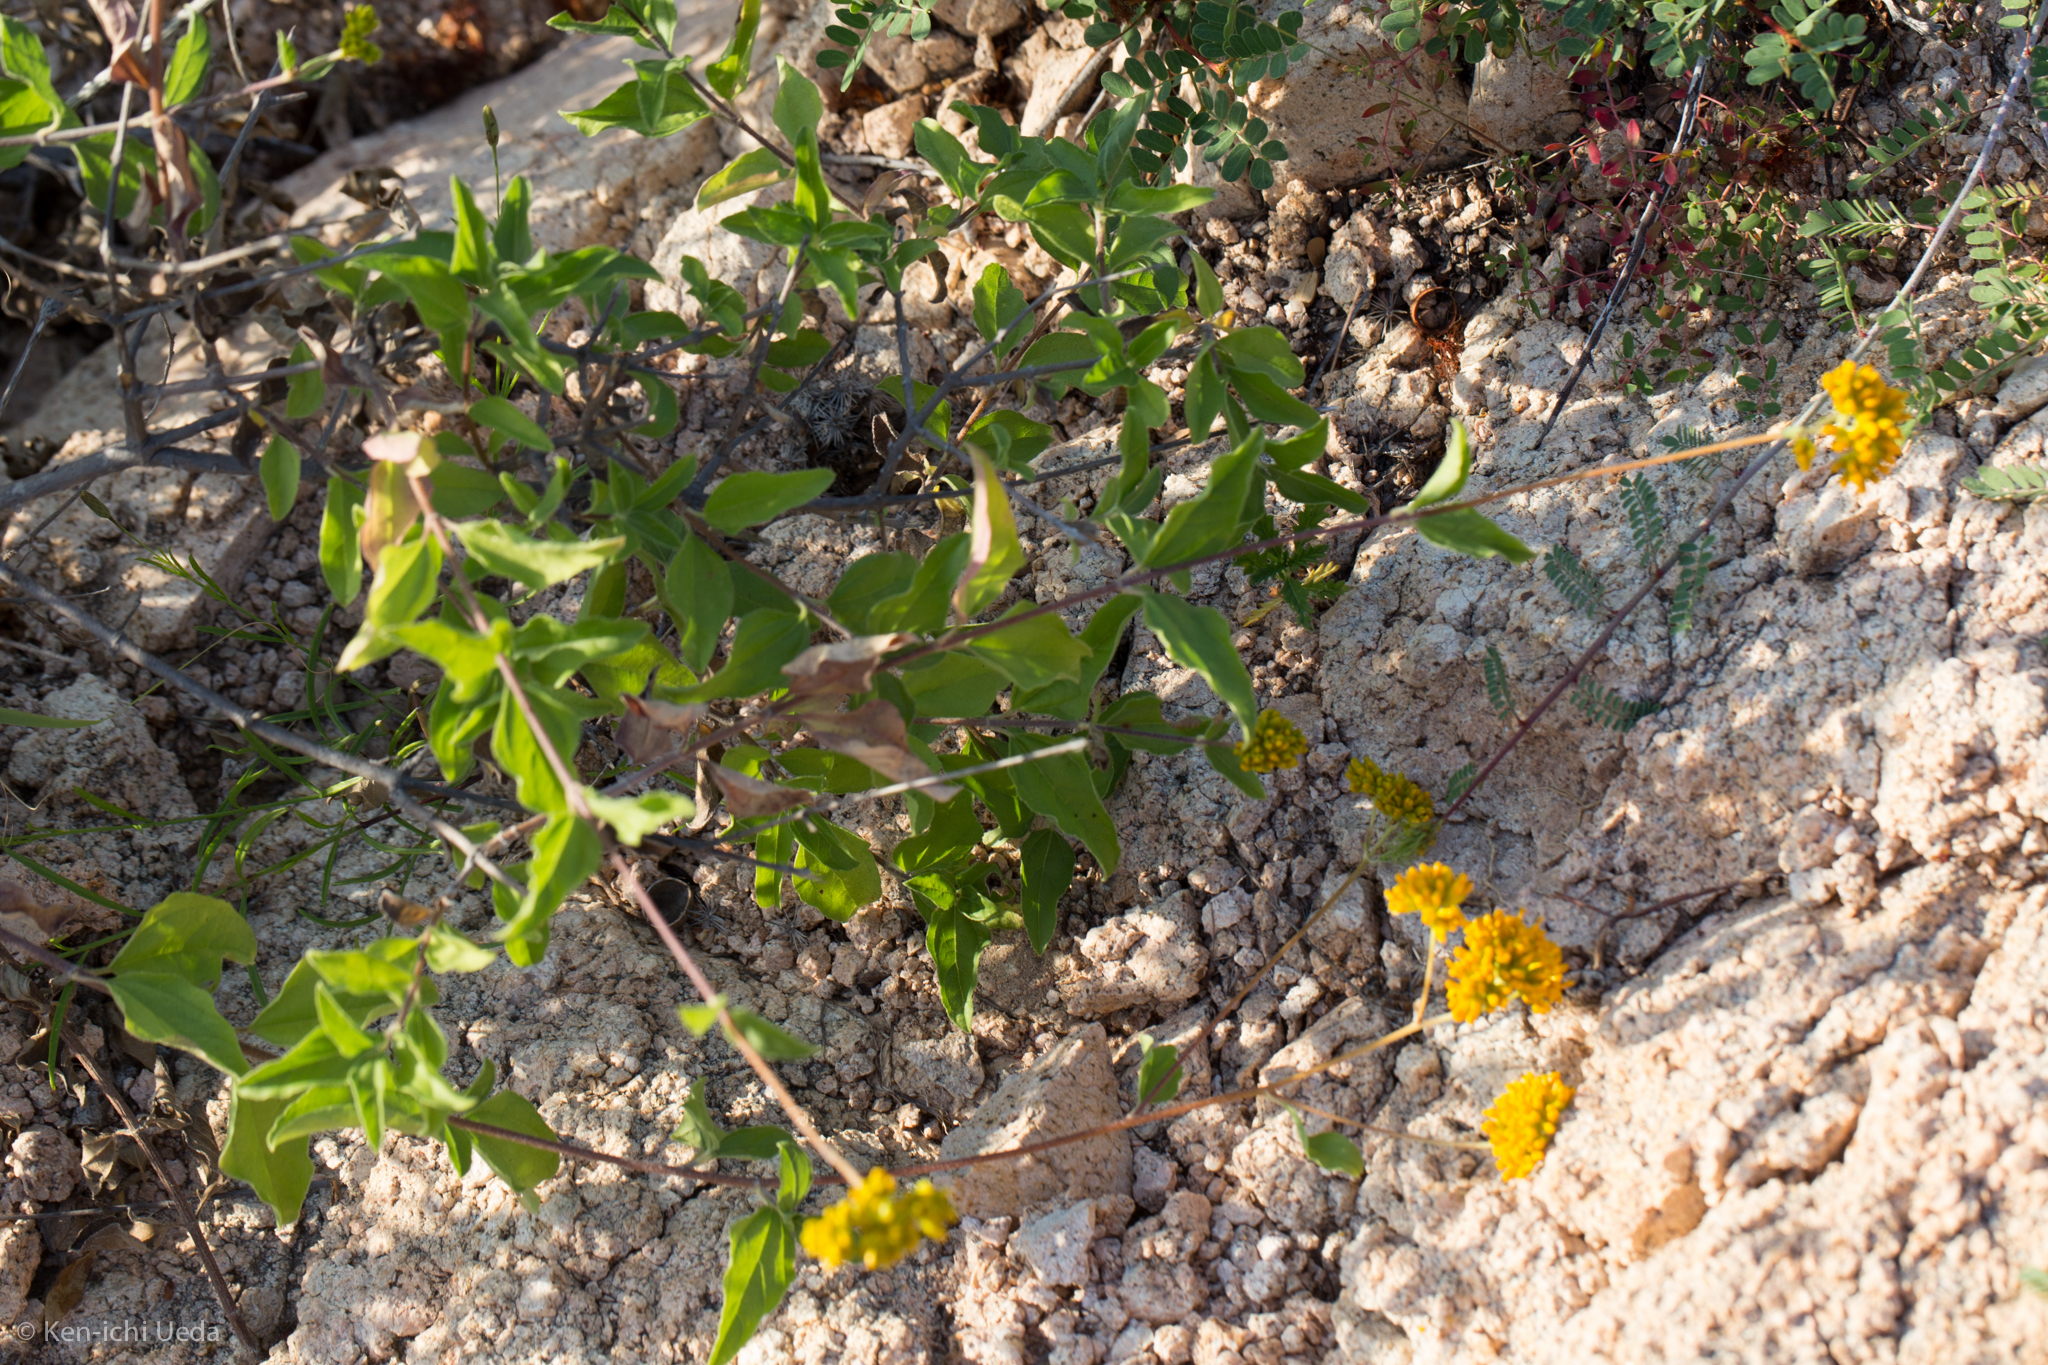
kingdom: Plantae
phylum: Tracheophyta
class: Magnoliopsida
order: Asterales
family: Asteraceae
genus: Aldama
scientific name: Aldama brandegeei
